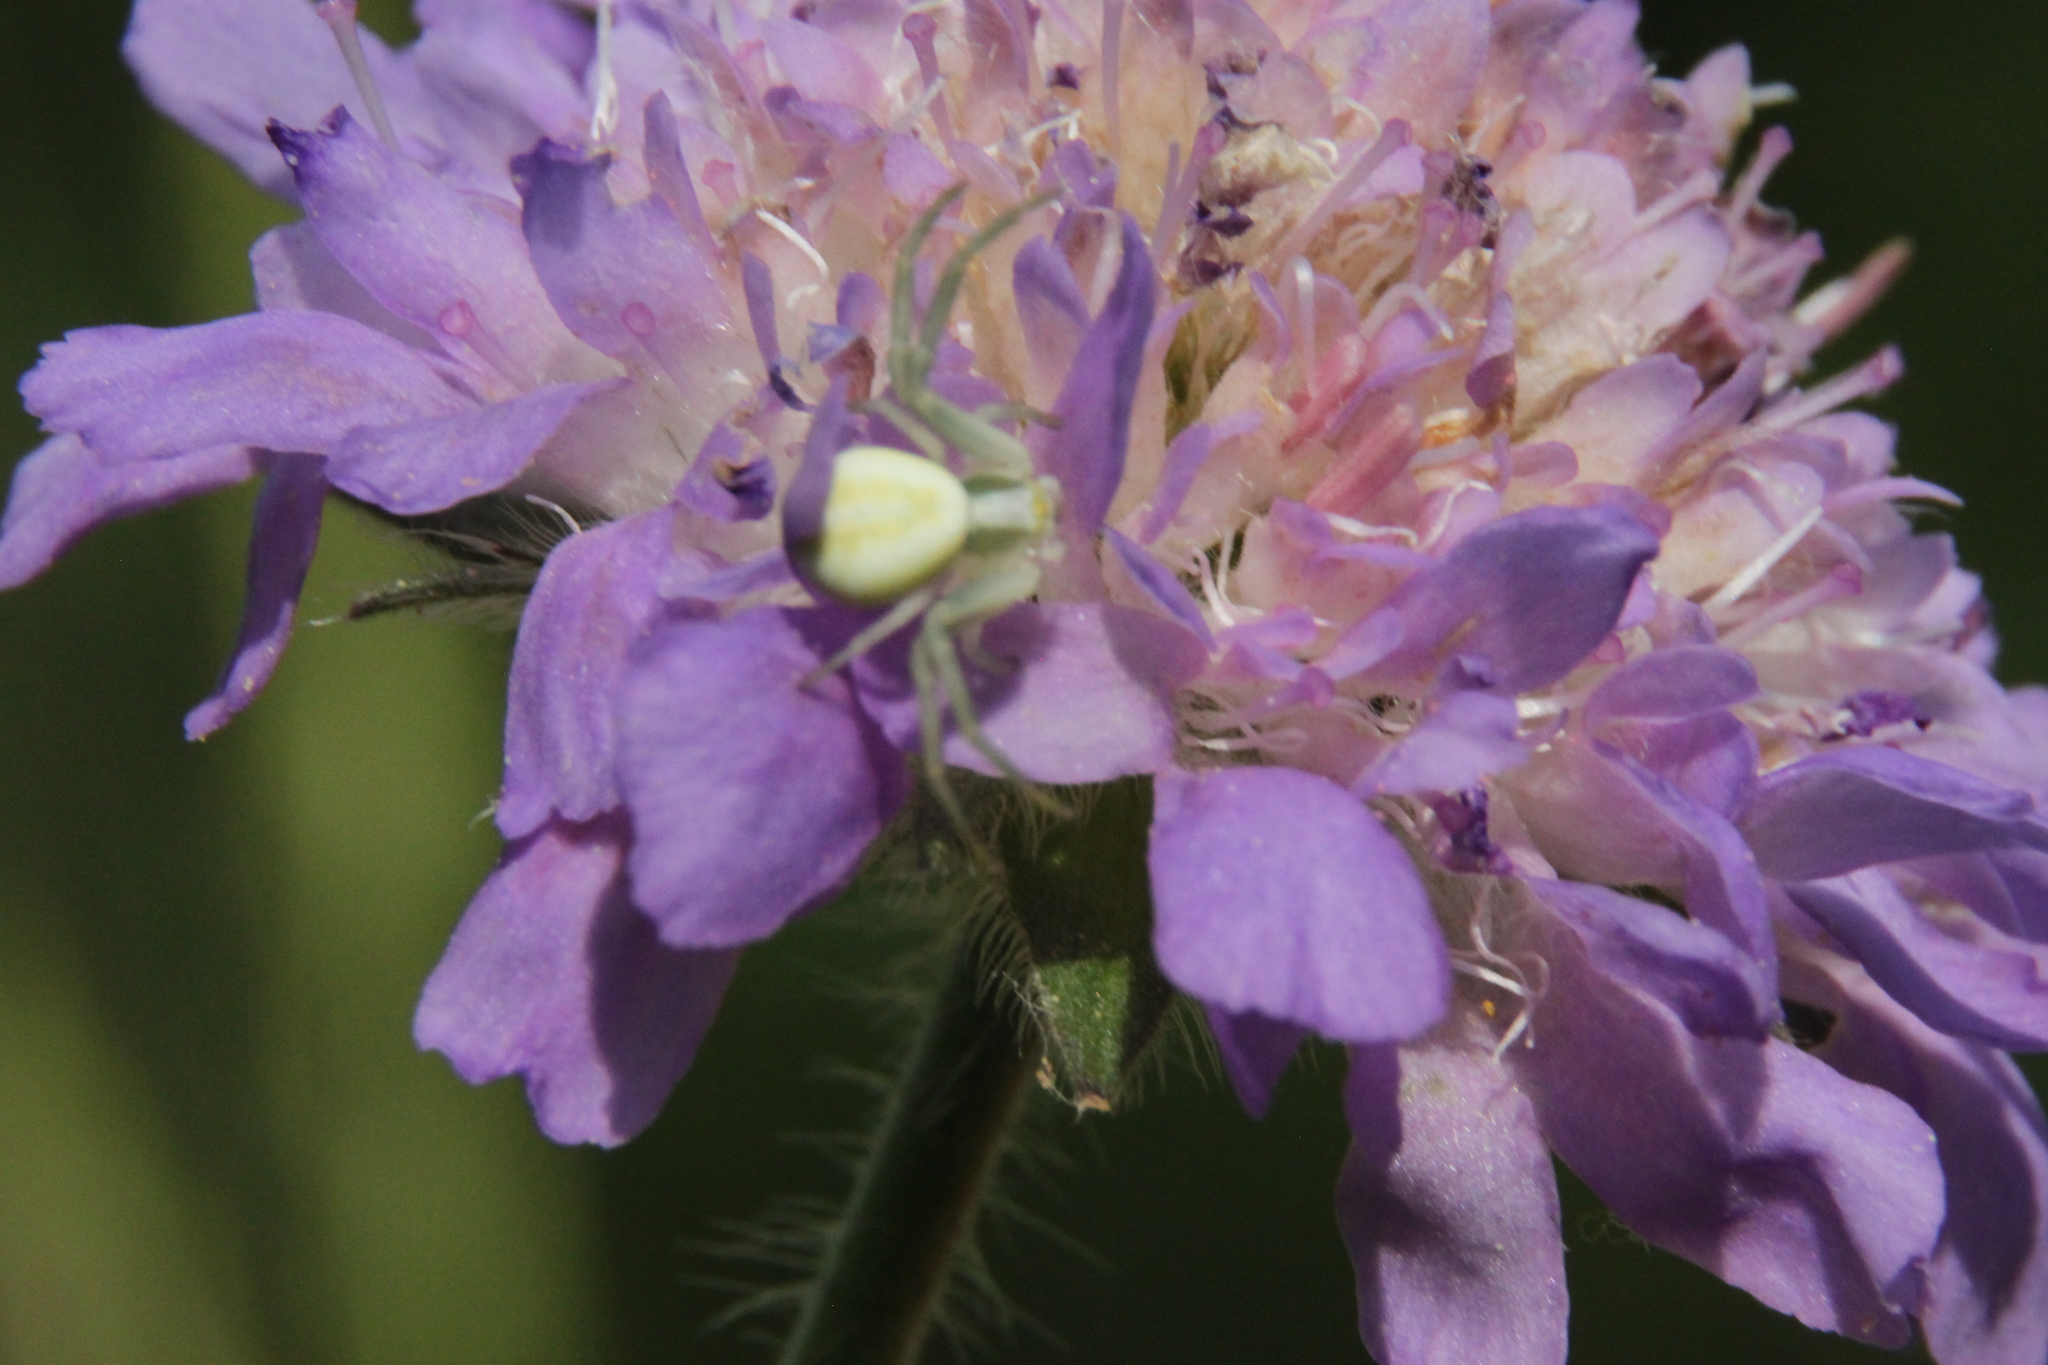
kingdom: Animalia
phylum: Arthropoda
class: Arachnida
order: Araneae
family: Thomisidae
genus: Misumena
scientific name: Misumena vatia
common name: Goldenrod crab spider
